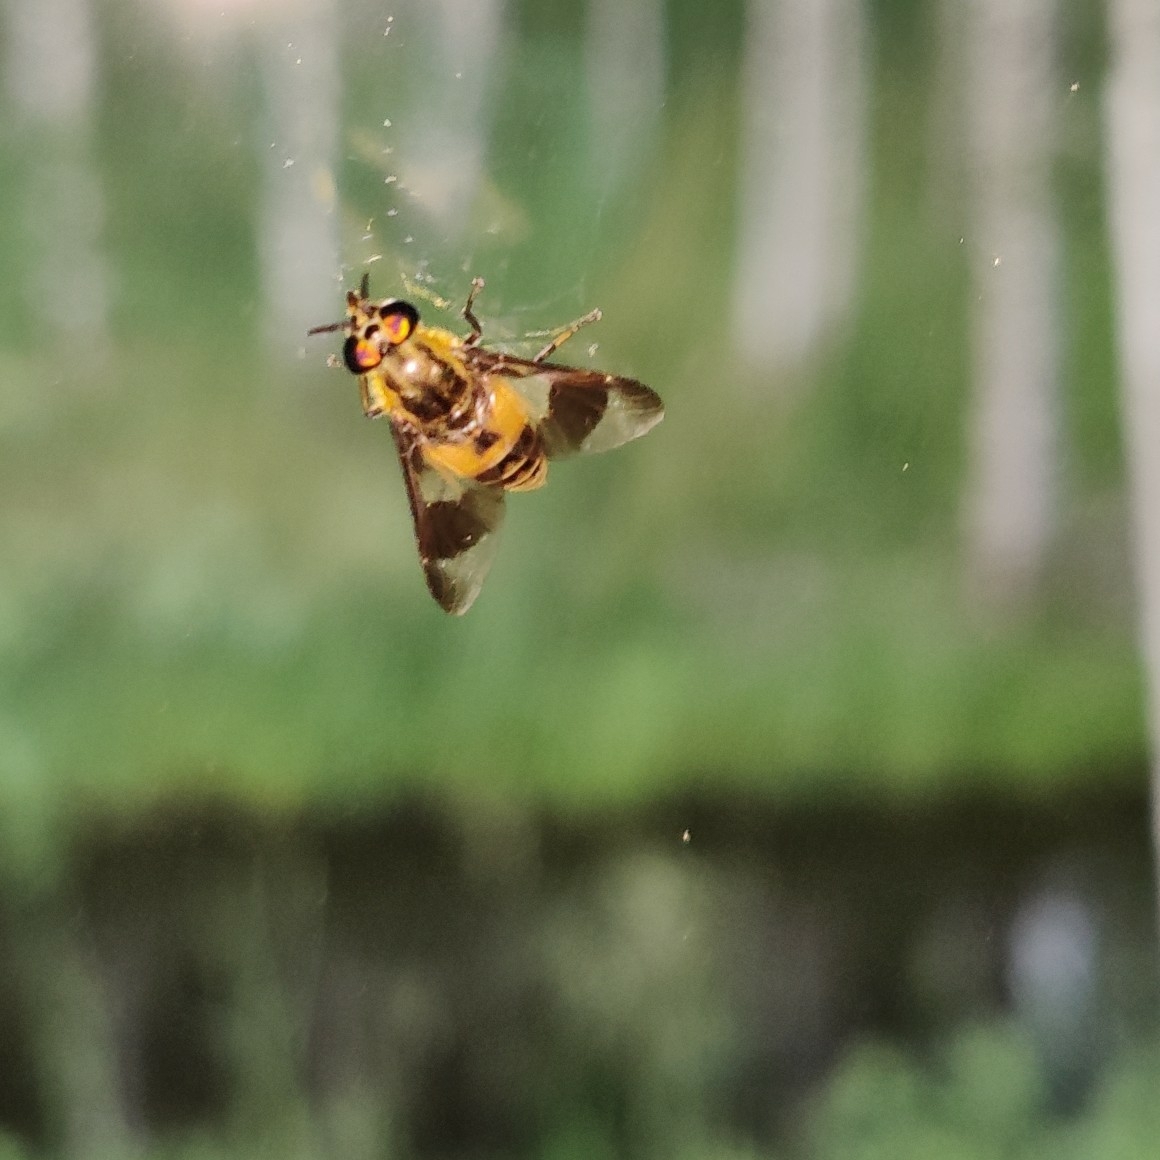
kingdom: Animalia
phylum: Arthropoda
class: Insecta
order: Diptera
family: Tabanidae
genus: Chrysops
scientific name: Chrysops viduatus
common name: Square-spot deerfly
